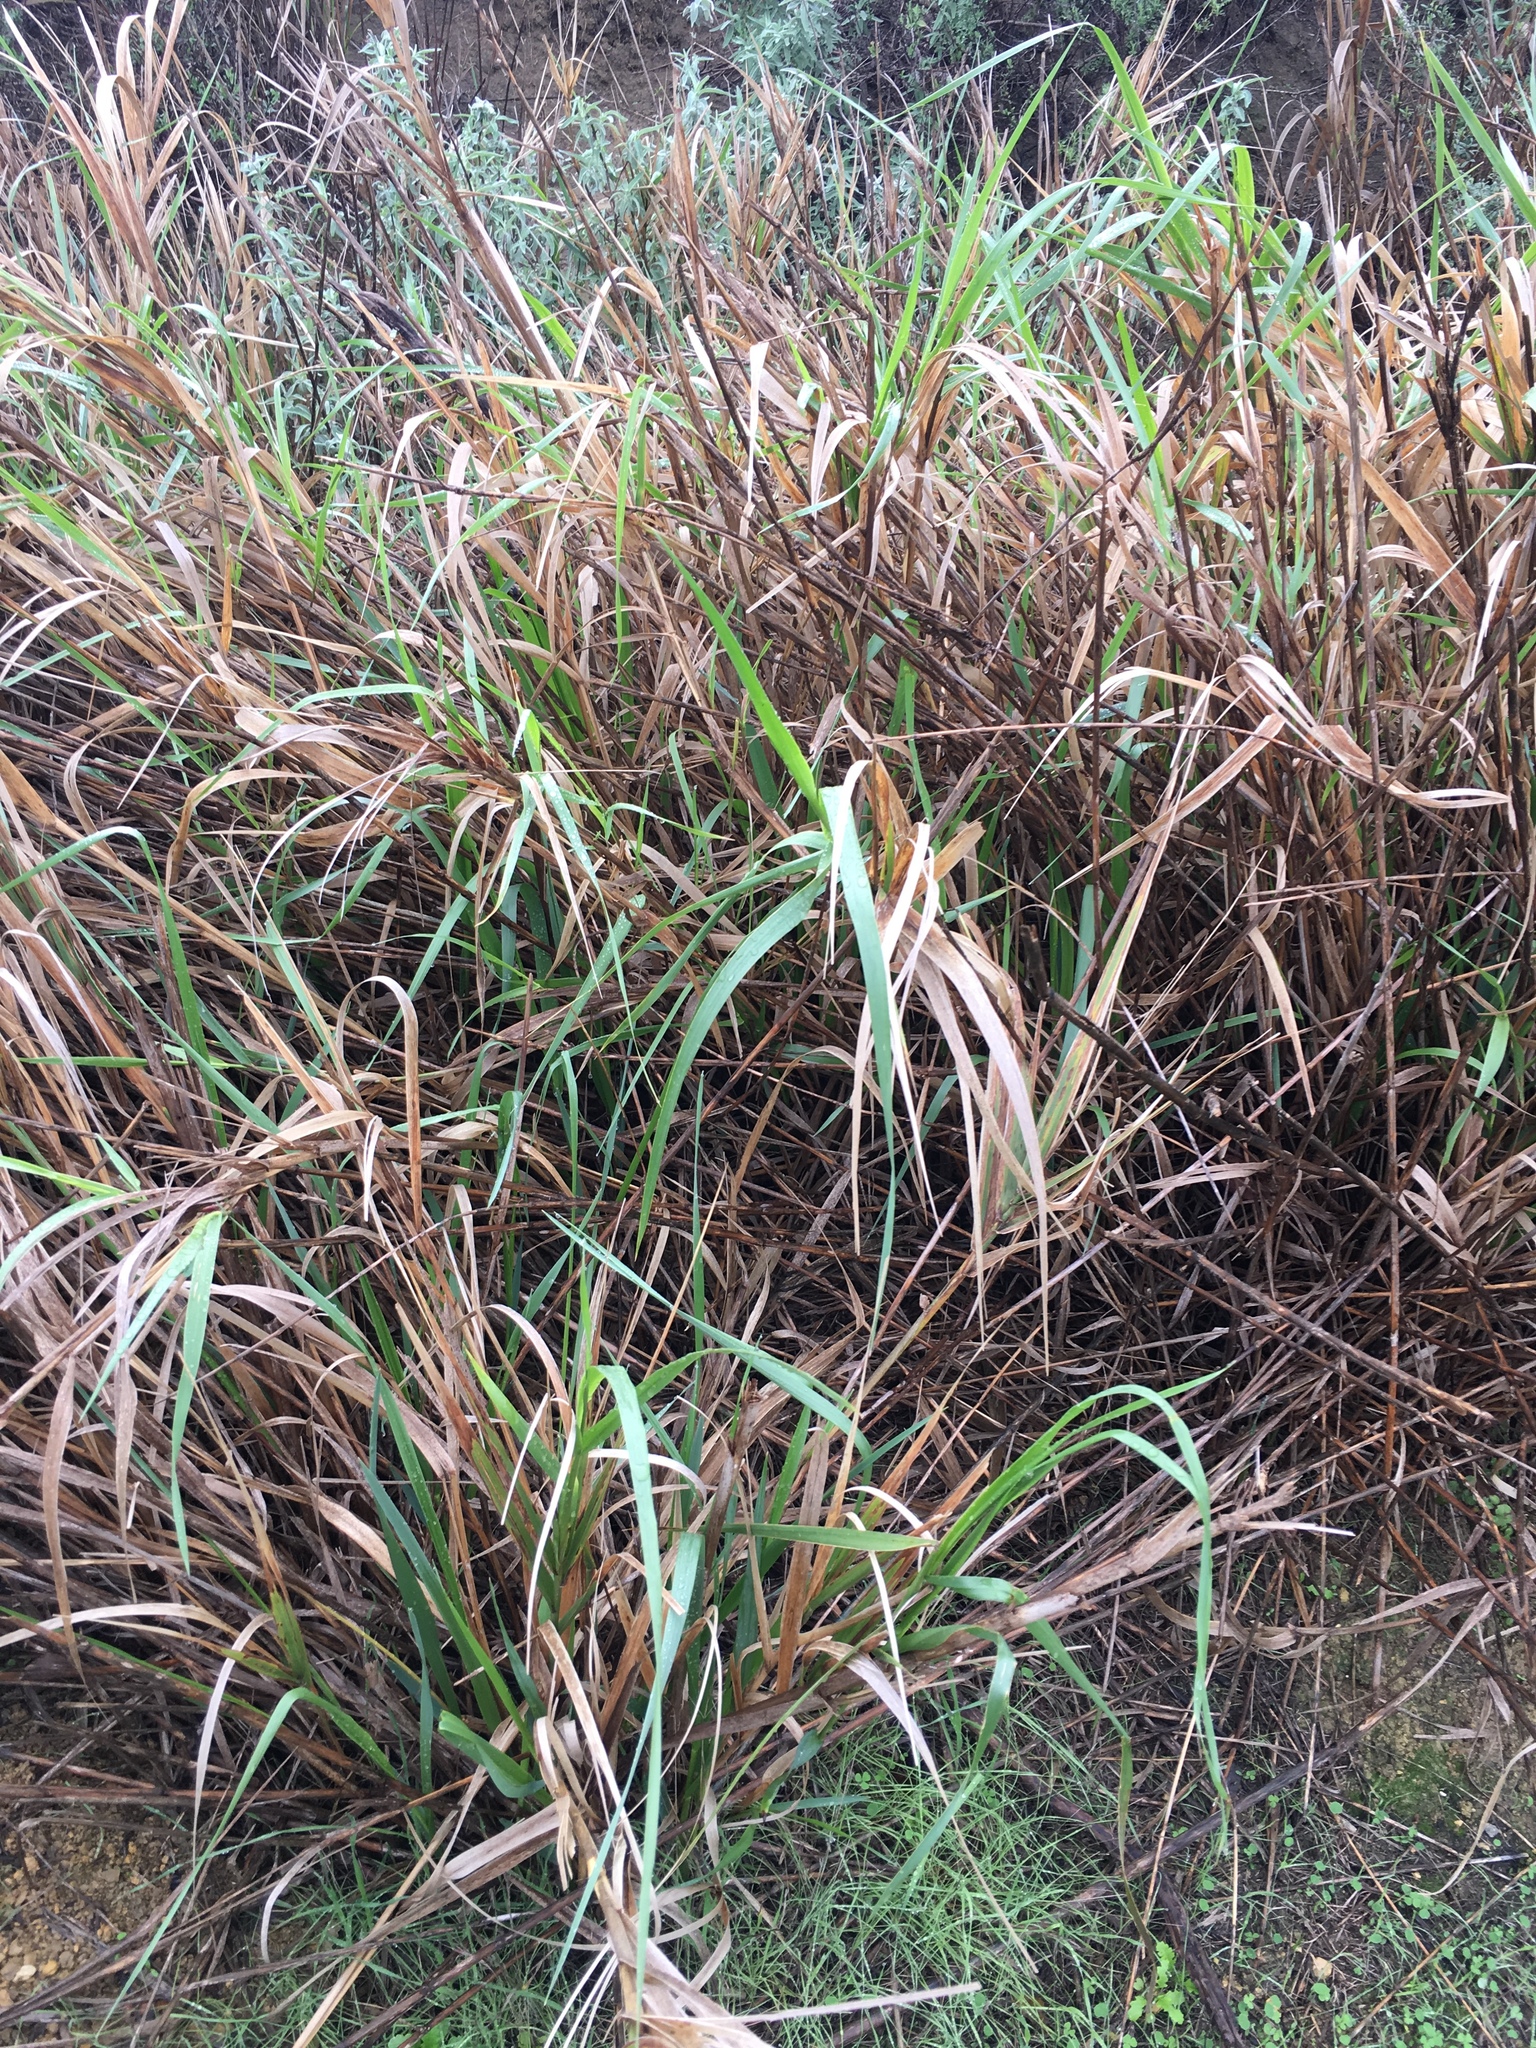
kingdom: Plantae
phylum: Tracheophyta
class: Liliopsida
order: Poales
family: Poaceae
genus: Leymus
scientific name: Leymus condensatus
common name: Giant wild rye
